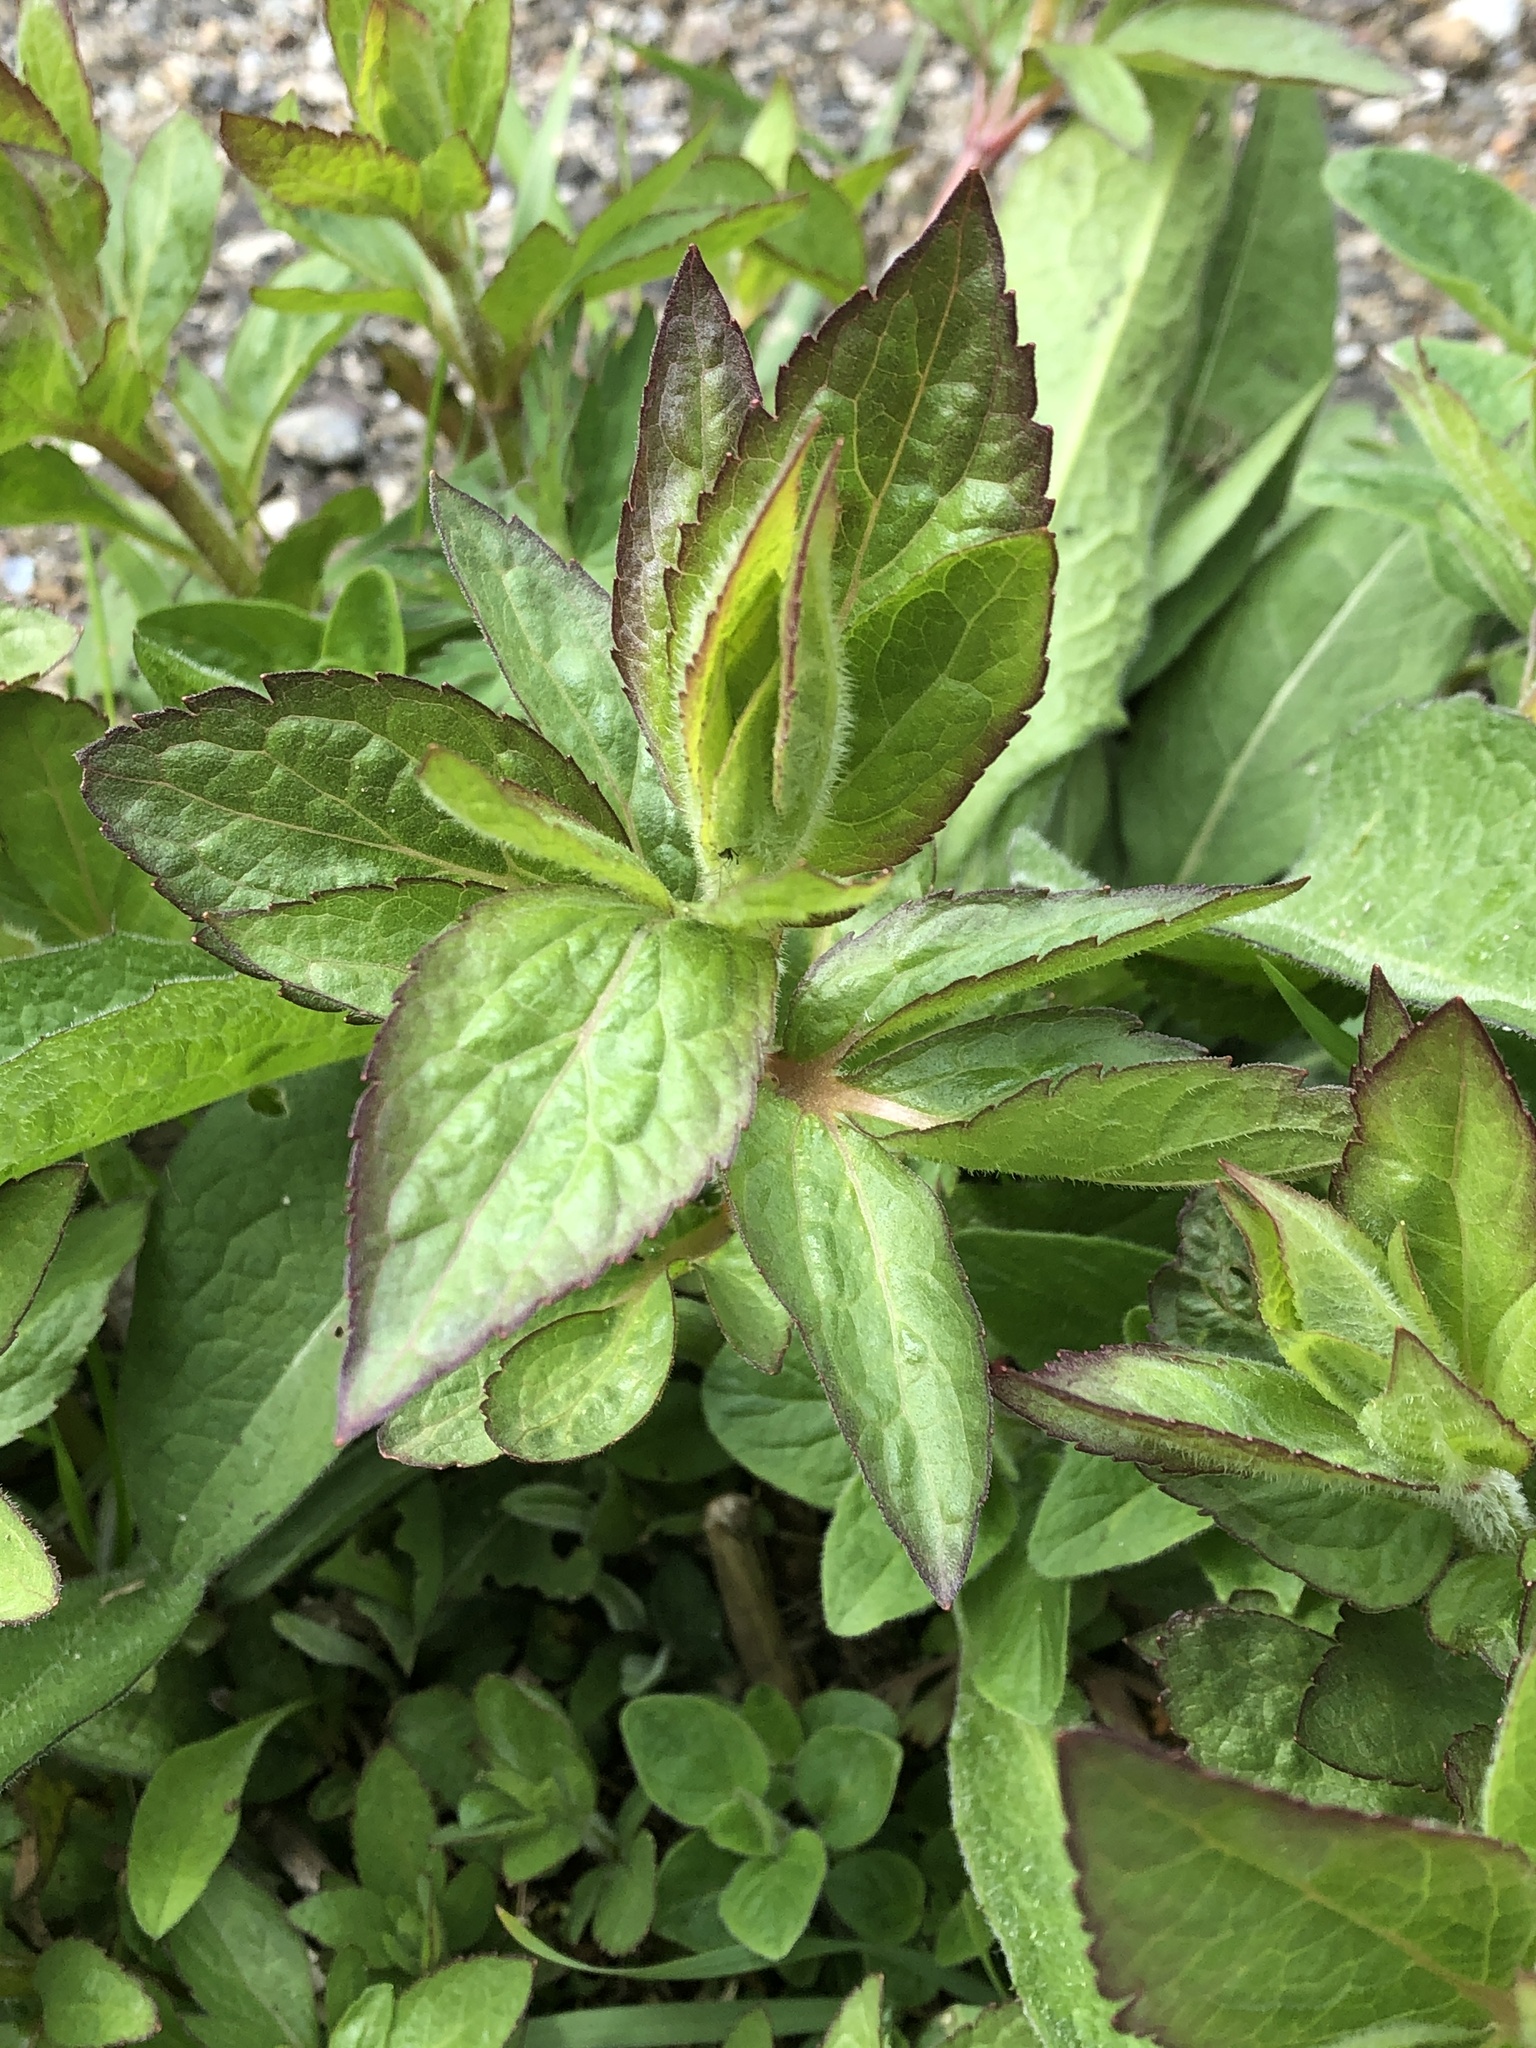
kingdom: Plantae
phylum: Tracheophyta
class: Magnoliopsida
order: Asterales
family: Asteraceae
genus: Eupatorium
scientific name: Eupatorium cannabinum
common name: Hemp-agrimony
